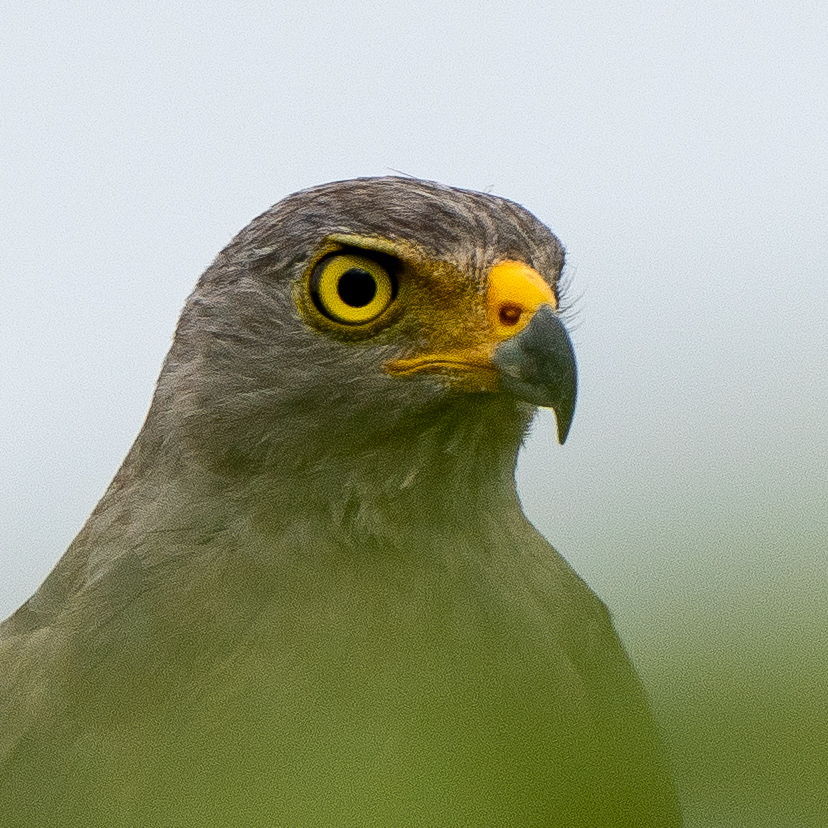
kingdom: Animalia
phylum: Chordata
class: Aves
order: Accipitriformes
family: Accipitridae
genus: Rupornis
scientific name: Rupornis magnirostris
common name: Roadside hawk
